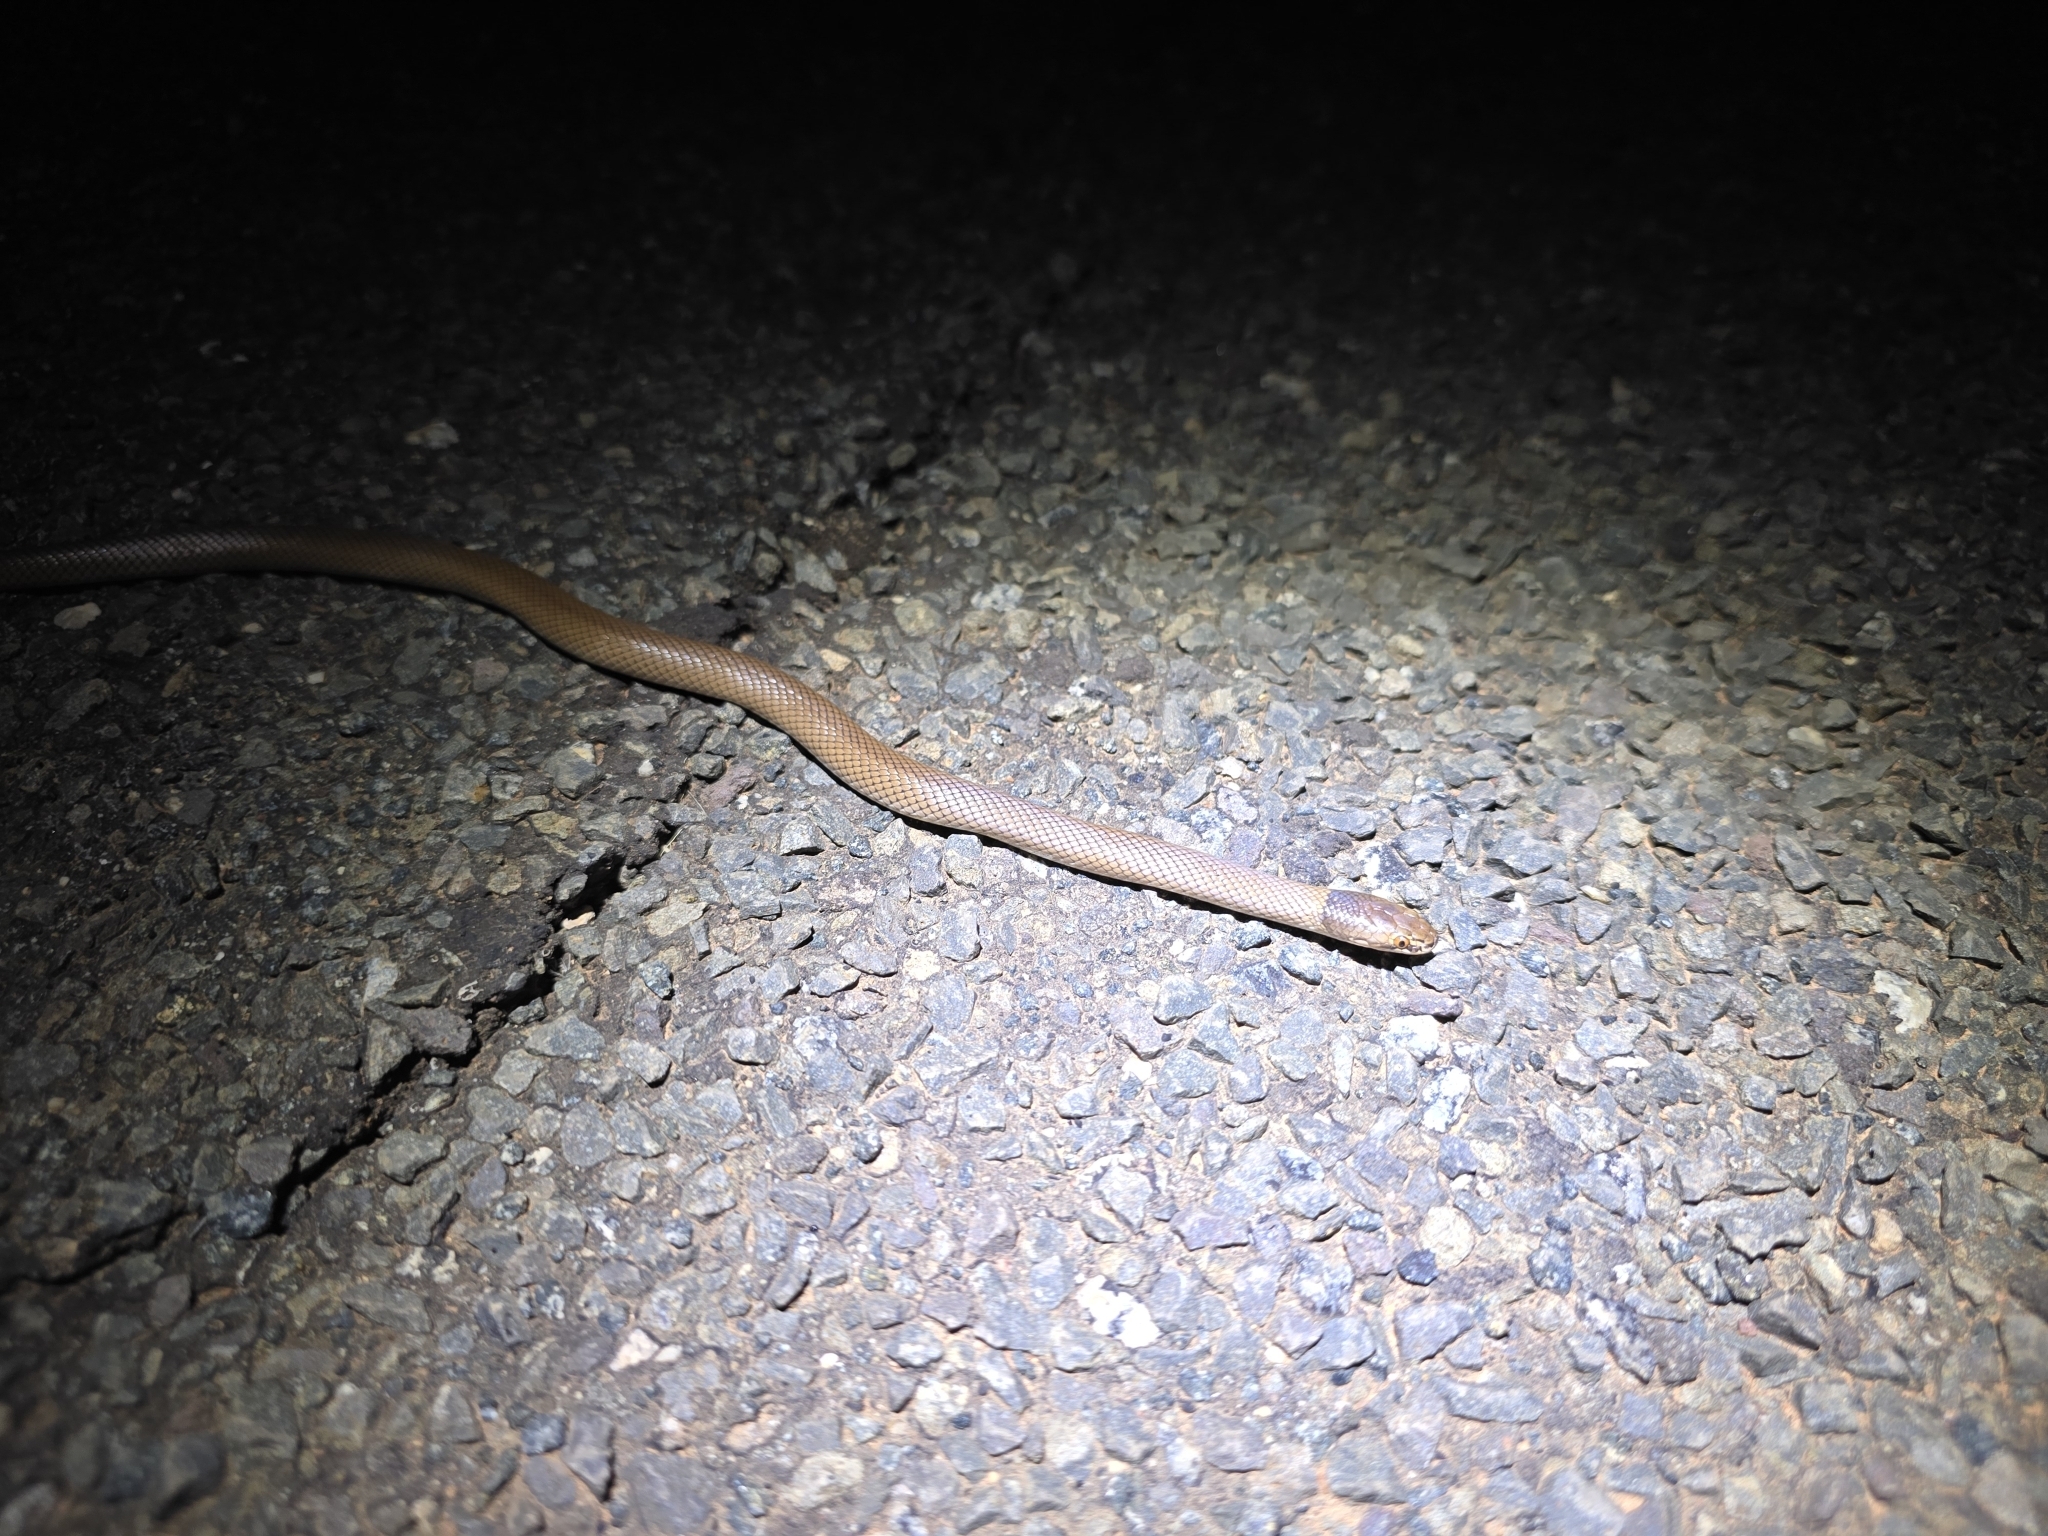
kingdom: Animalia
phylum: Chordata
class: Squamata
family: Elapidae
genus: Suta
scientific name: Suta suta
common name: Curl snake
